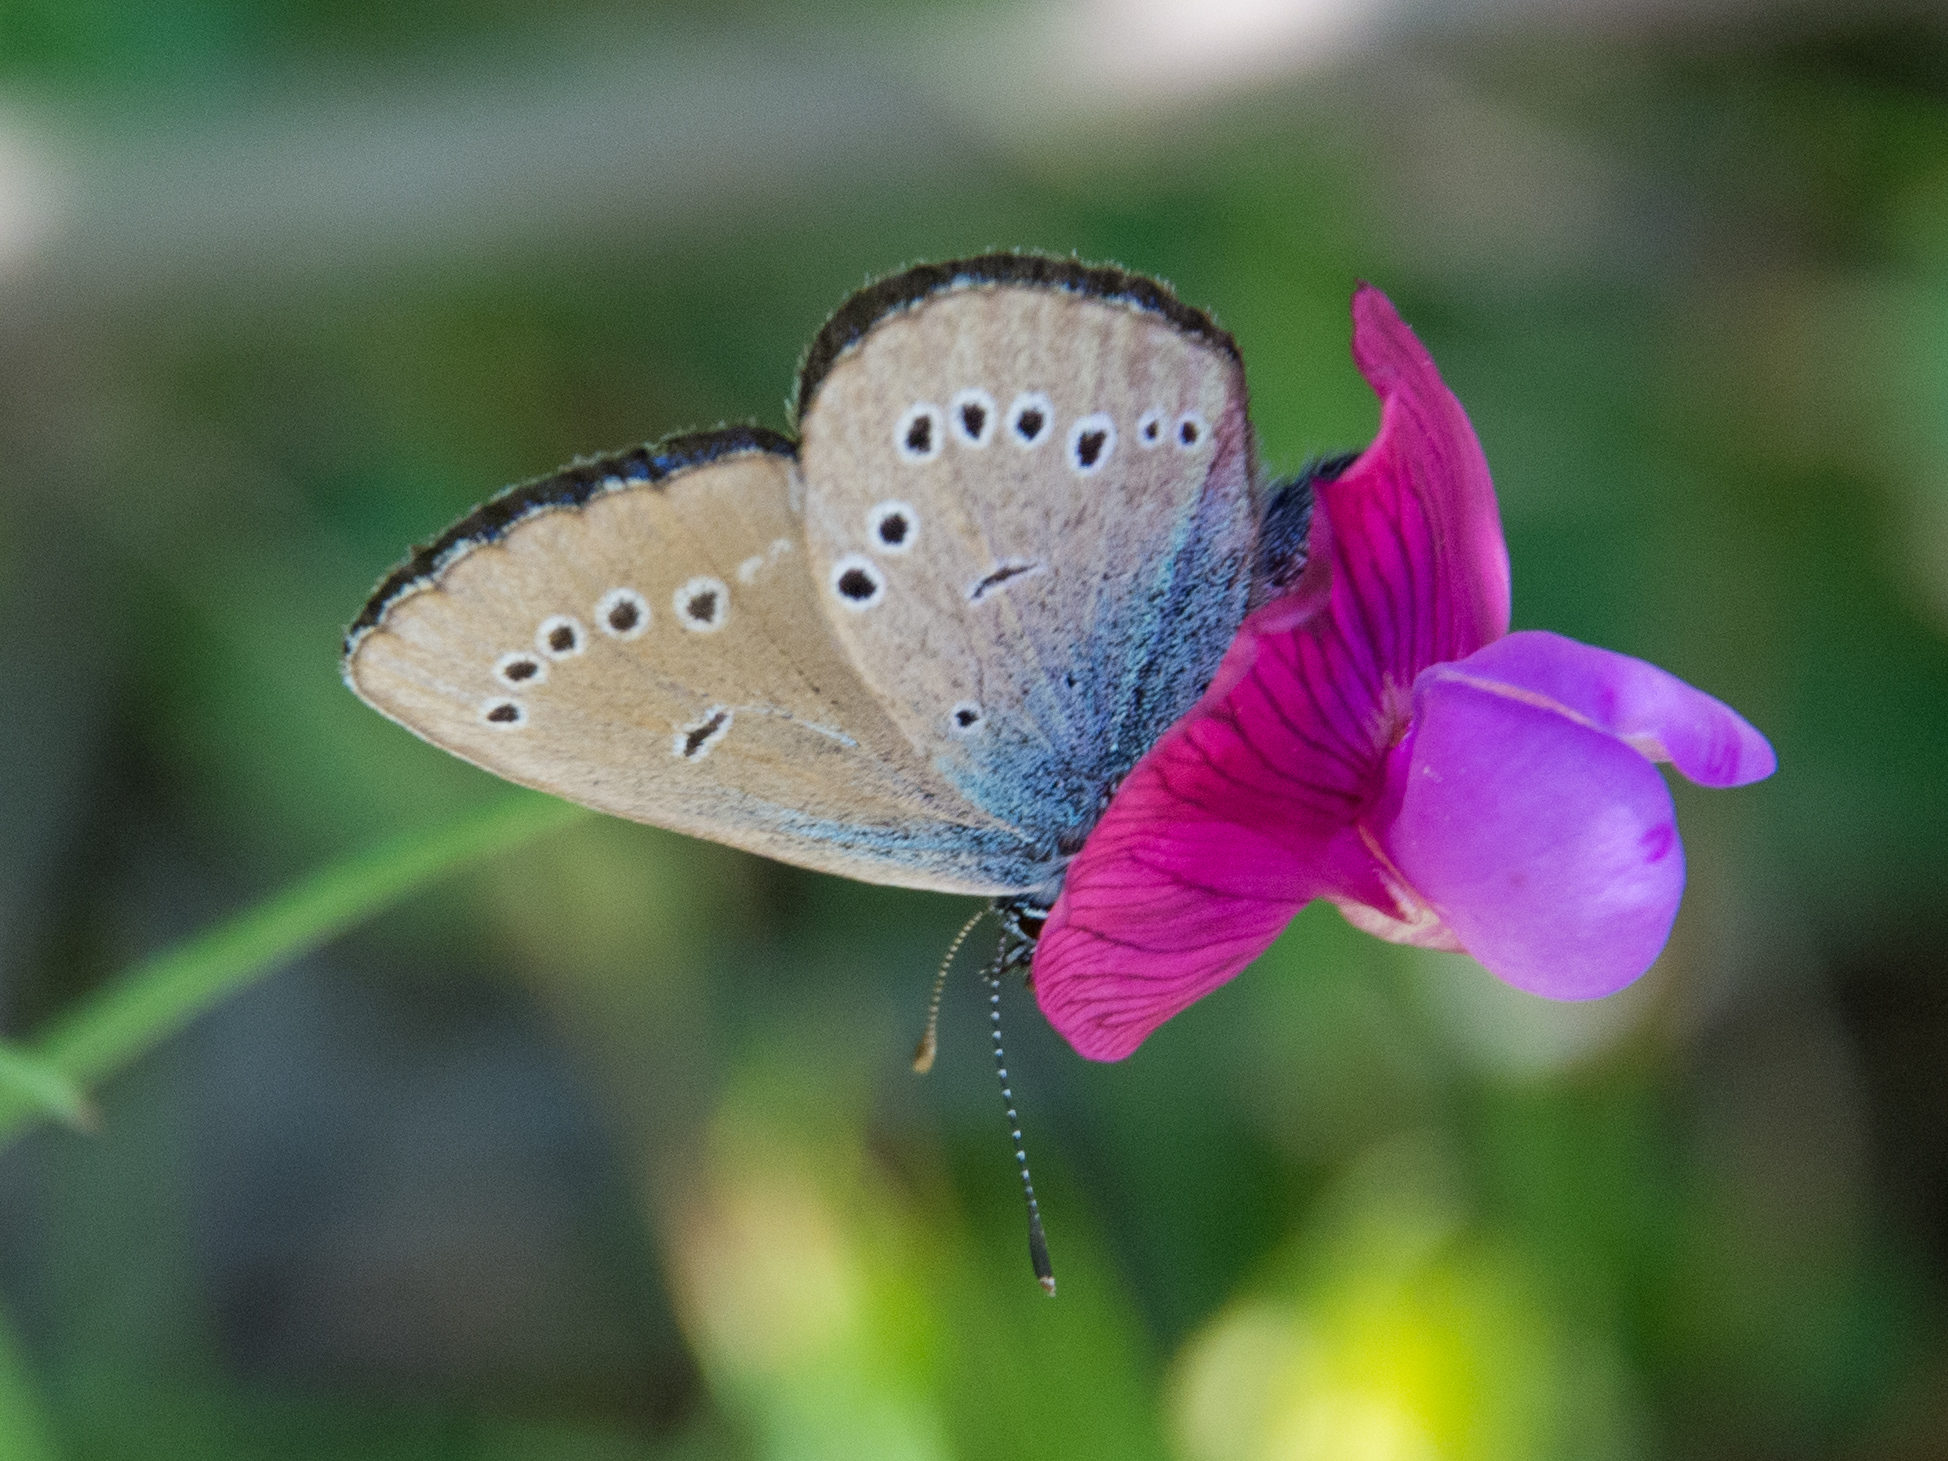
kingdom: Animalia
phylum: Arthropoda
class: Insecta
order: Lepidoptera
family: Lycaenidae
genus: Cyaniris
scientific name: Cyaniris semiargus
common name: Mazarine blue
